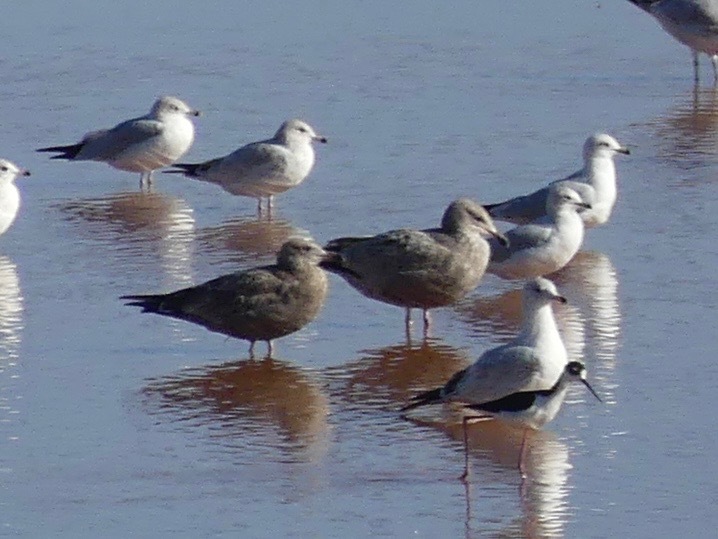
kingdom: Animalia
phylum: Chordata
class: Aves
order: Charadriiformes
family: Laridae
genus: Larus
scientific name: Larus argentatus
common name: Herring gull
